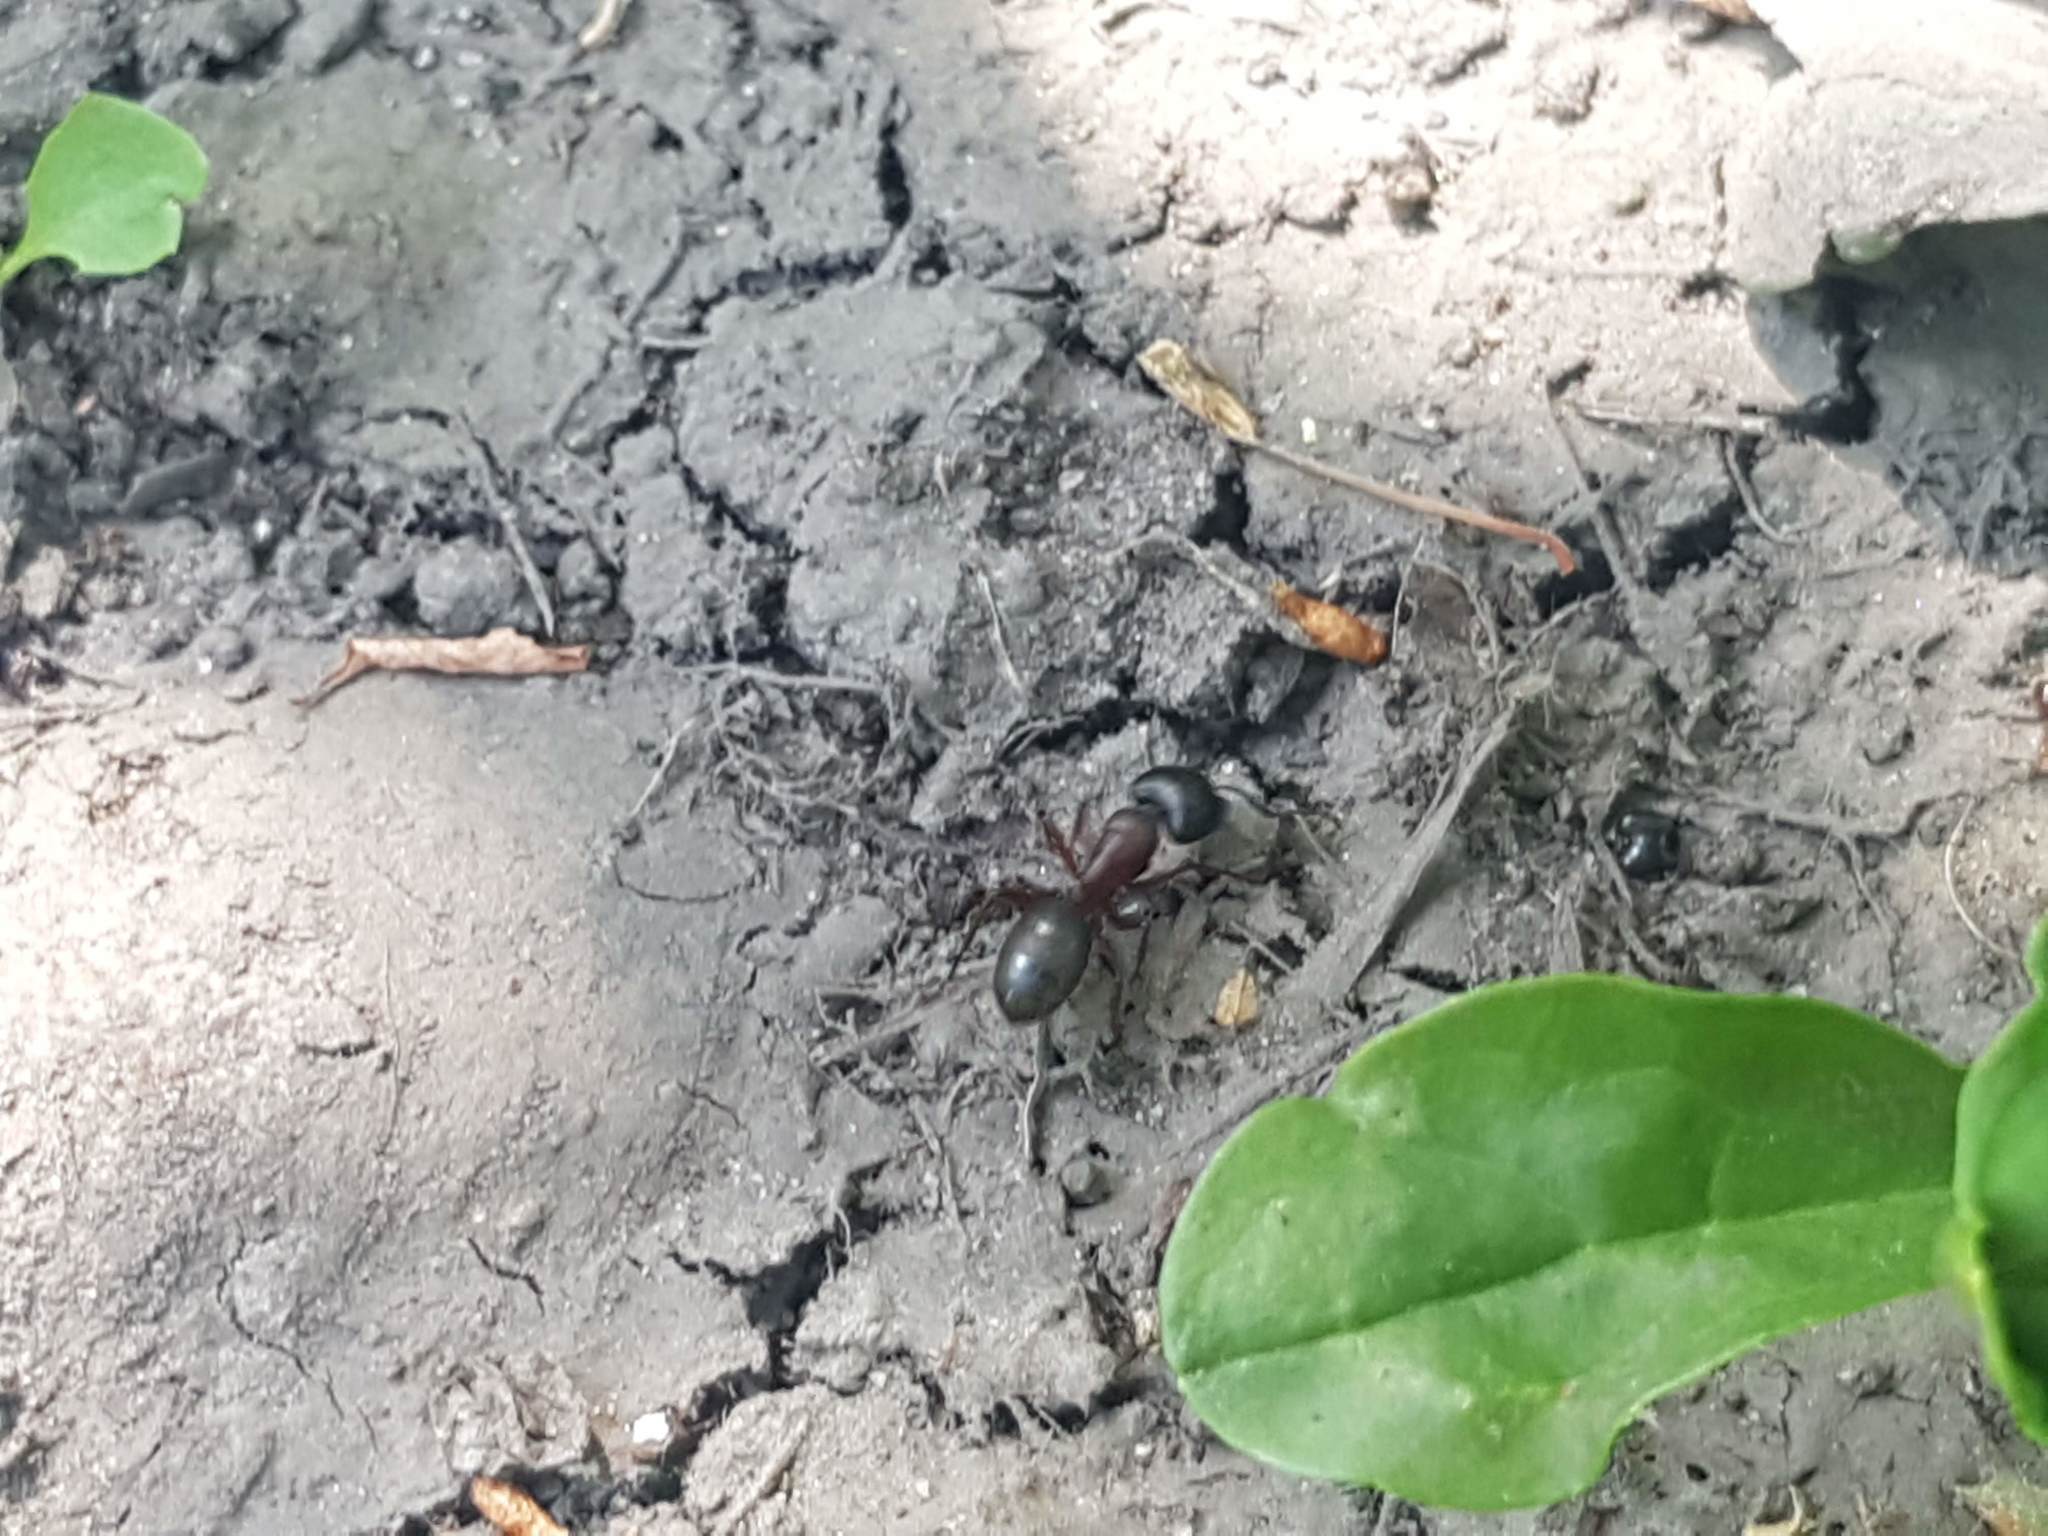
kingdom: Animalia
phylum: Arthropoda
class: Insecta
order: Hymenoptera
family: Formicidae
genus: Camponotus
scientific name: Camponotus herculeanus
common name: Hercules ant
